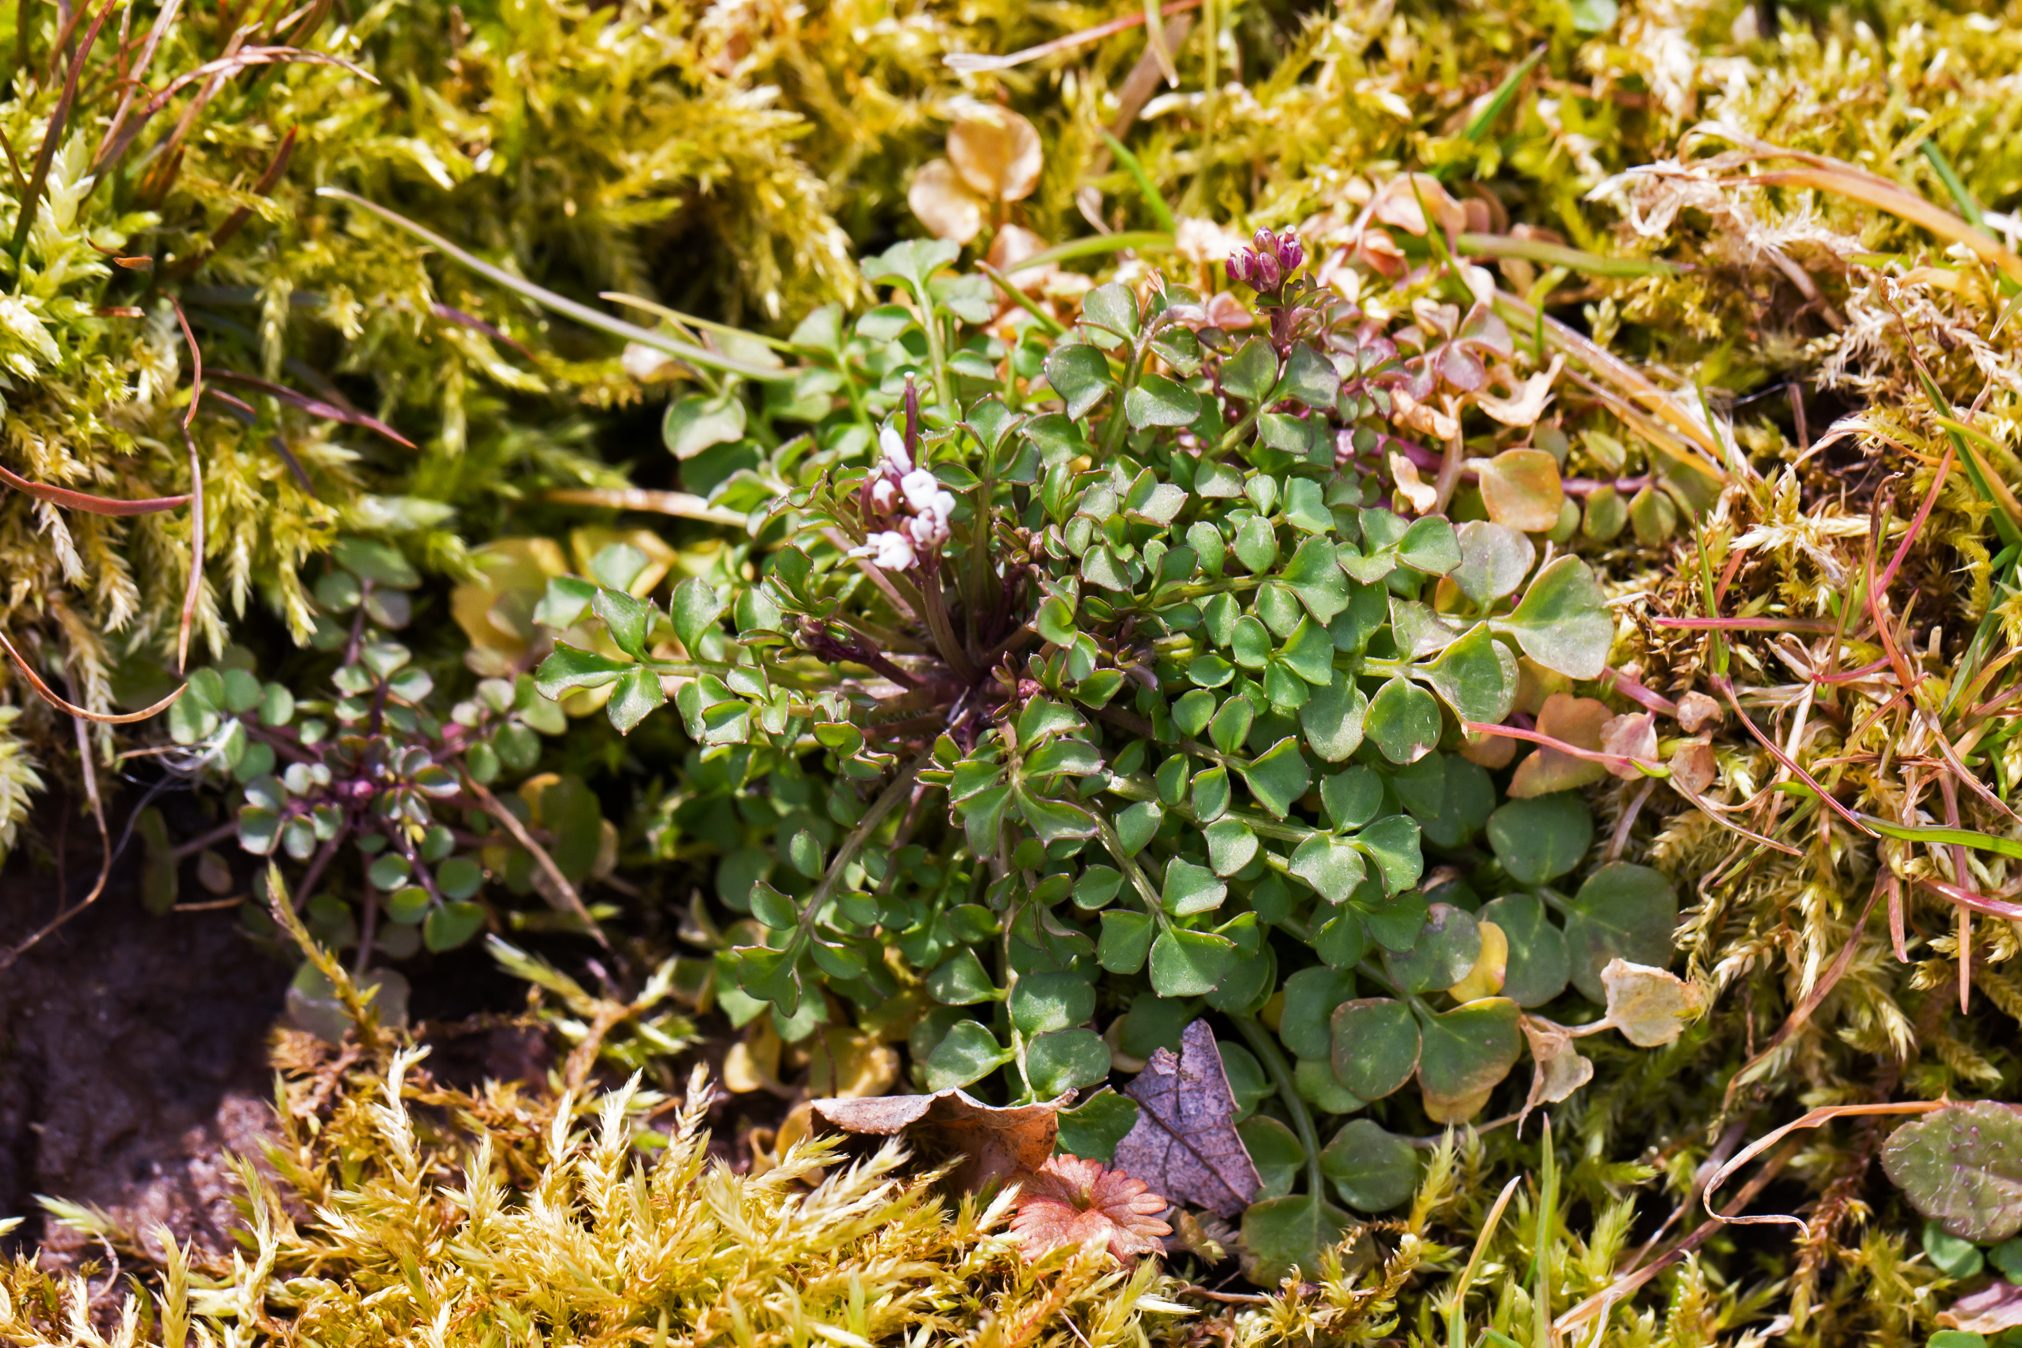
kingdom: Plantae
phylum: Tracheophyta
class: Magnoliopsida
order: Brassicales
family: Brassicaceae
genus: Cardamine
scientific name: Cardamine hirsuta
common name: Hairy bittercress
